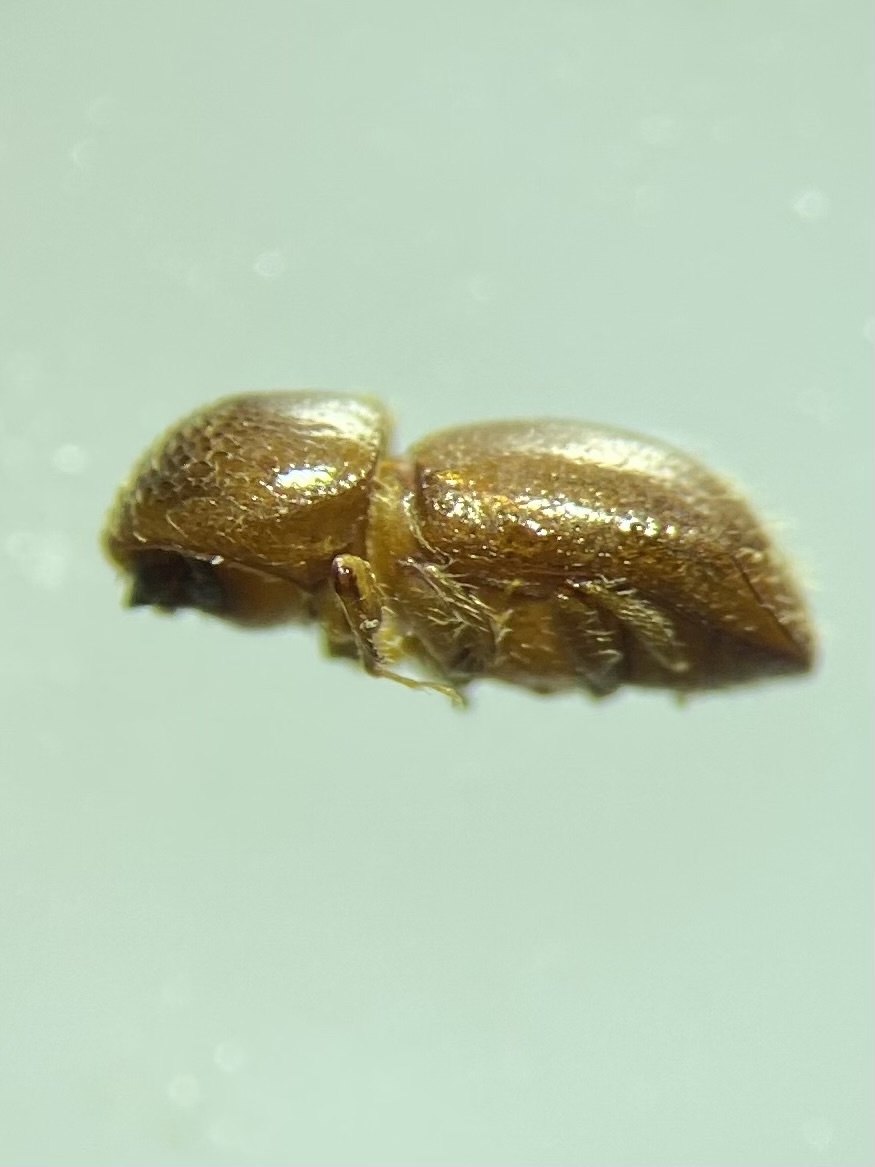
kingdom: Animalia
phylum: Arthropoda
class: Insecta
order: Coleoptera
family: Curculionidae
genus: Xylosandrus
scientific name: Xylosandrus germanus
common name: Bark beetle
